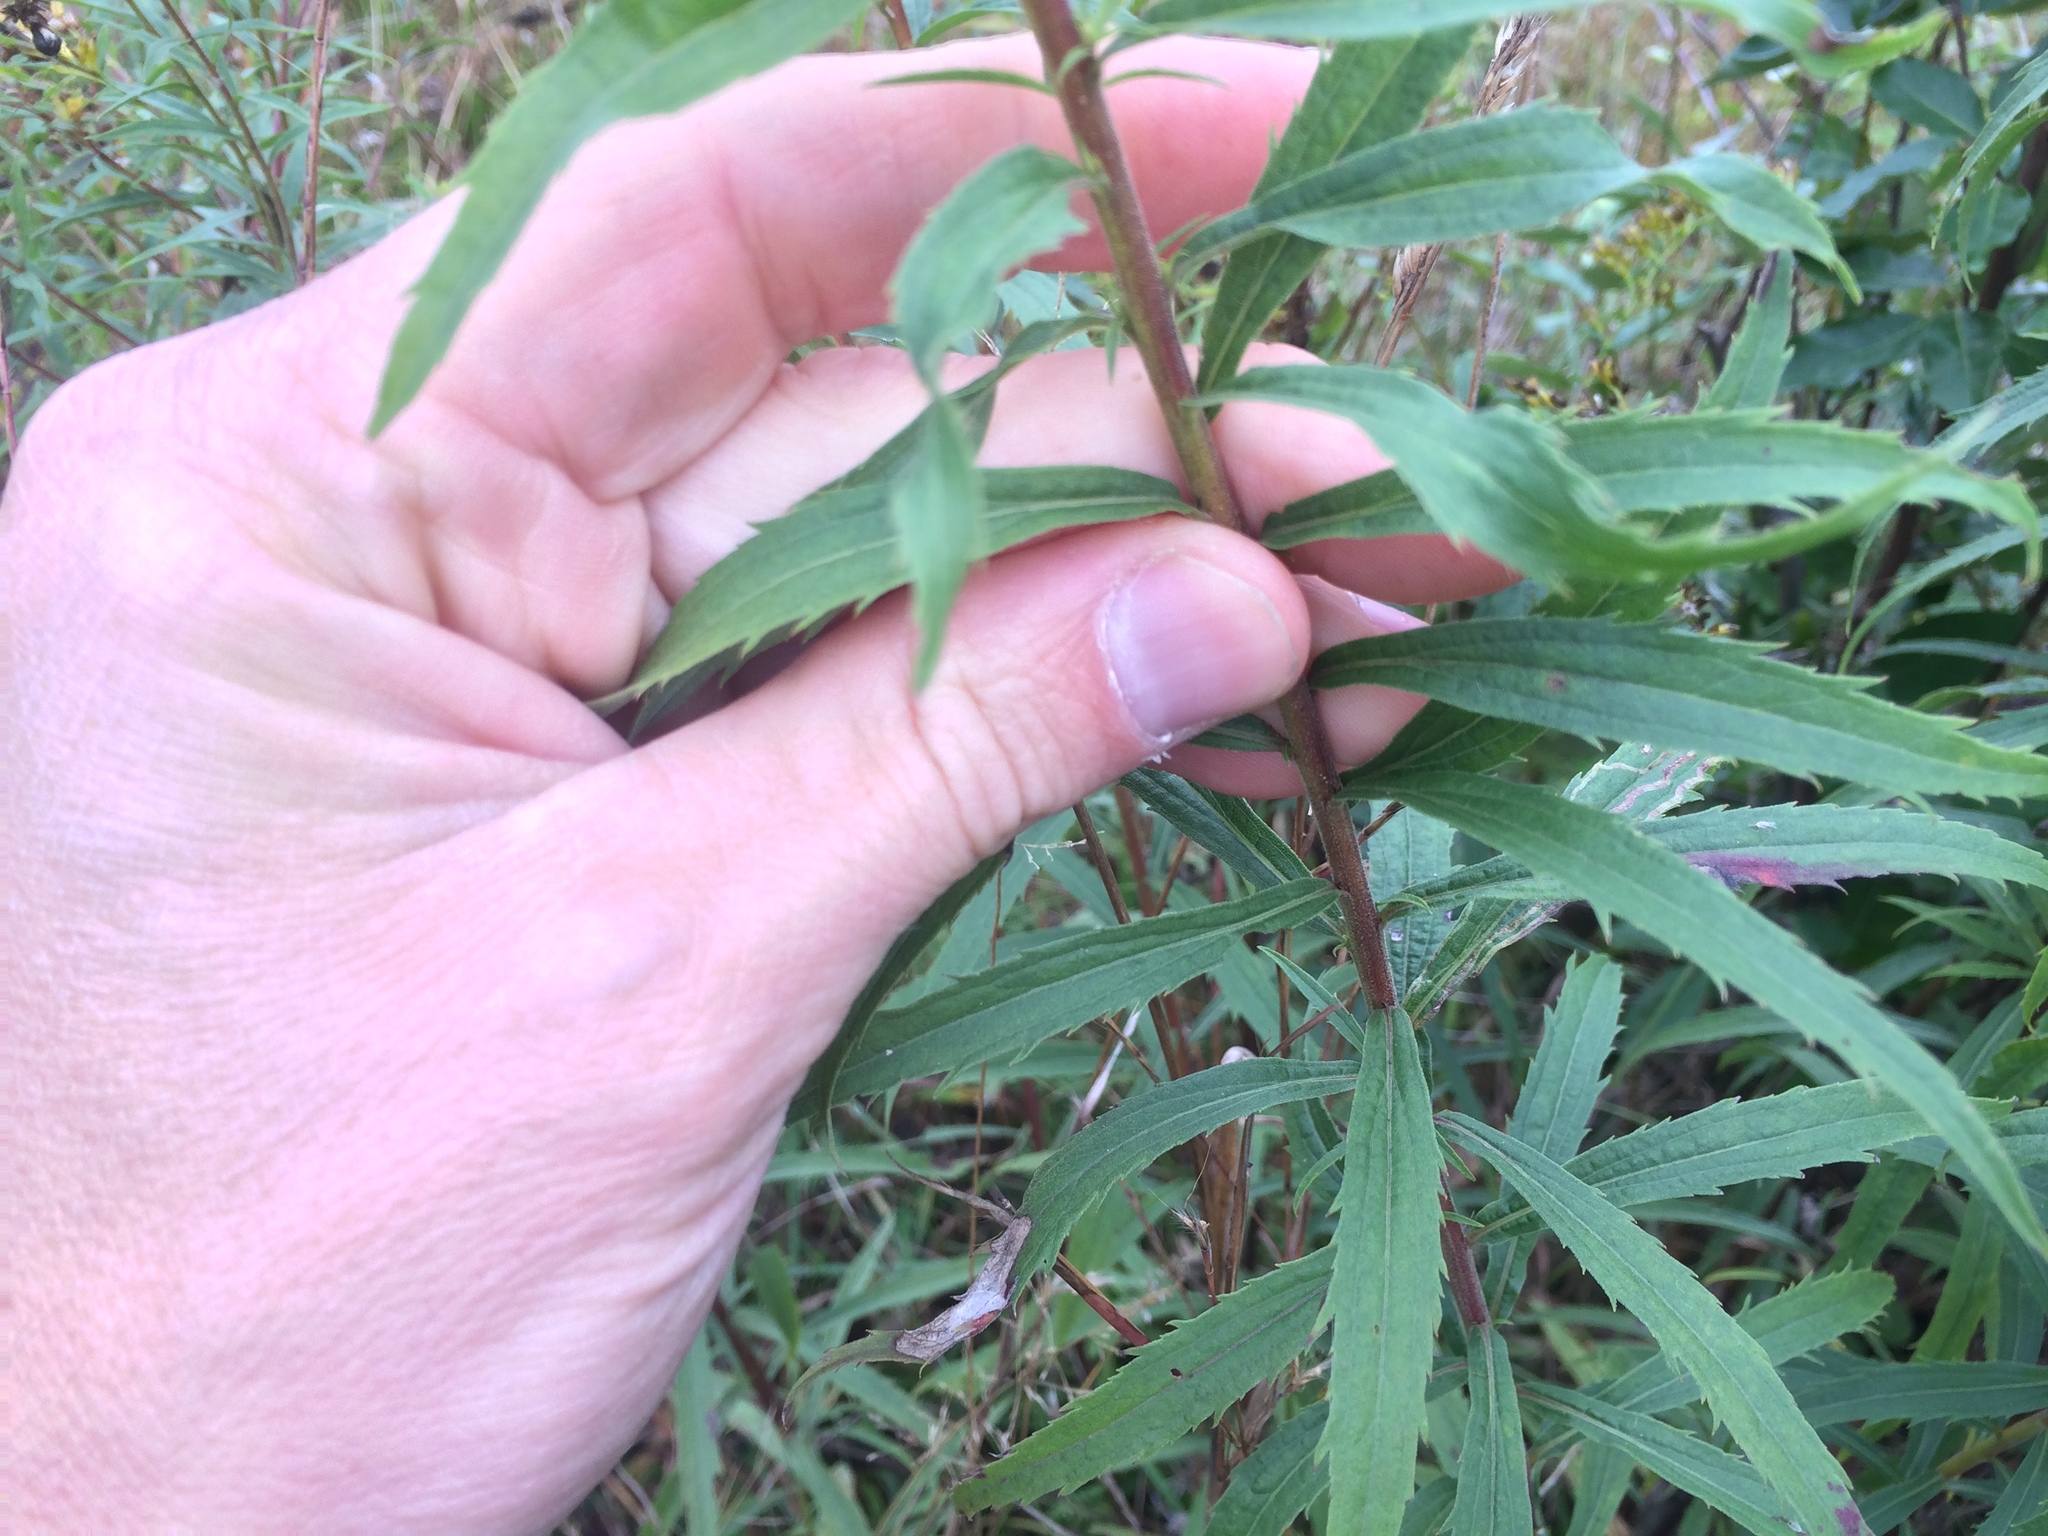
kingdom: Plantae
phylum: Tracheophyta
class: Magnoliopsida
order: Asterales
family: Asteraceae
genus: Solidago
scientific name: Solidago canadensis
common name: Canada goldenrod
